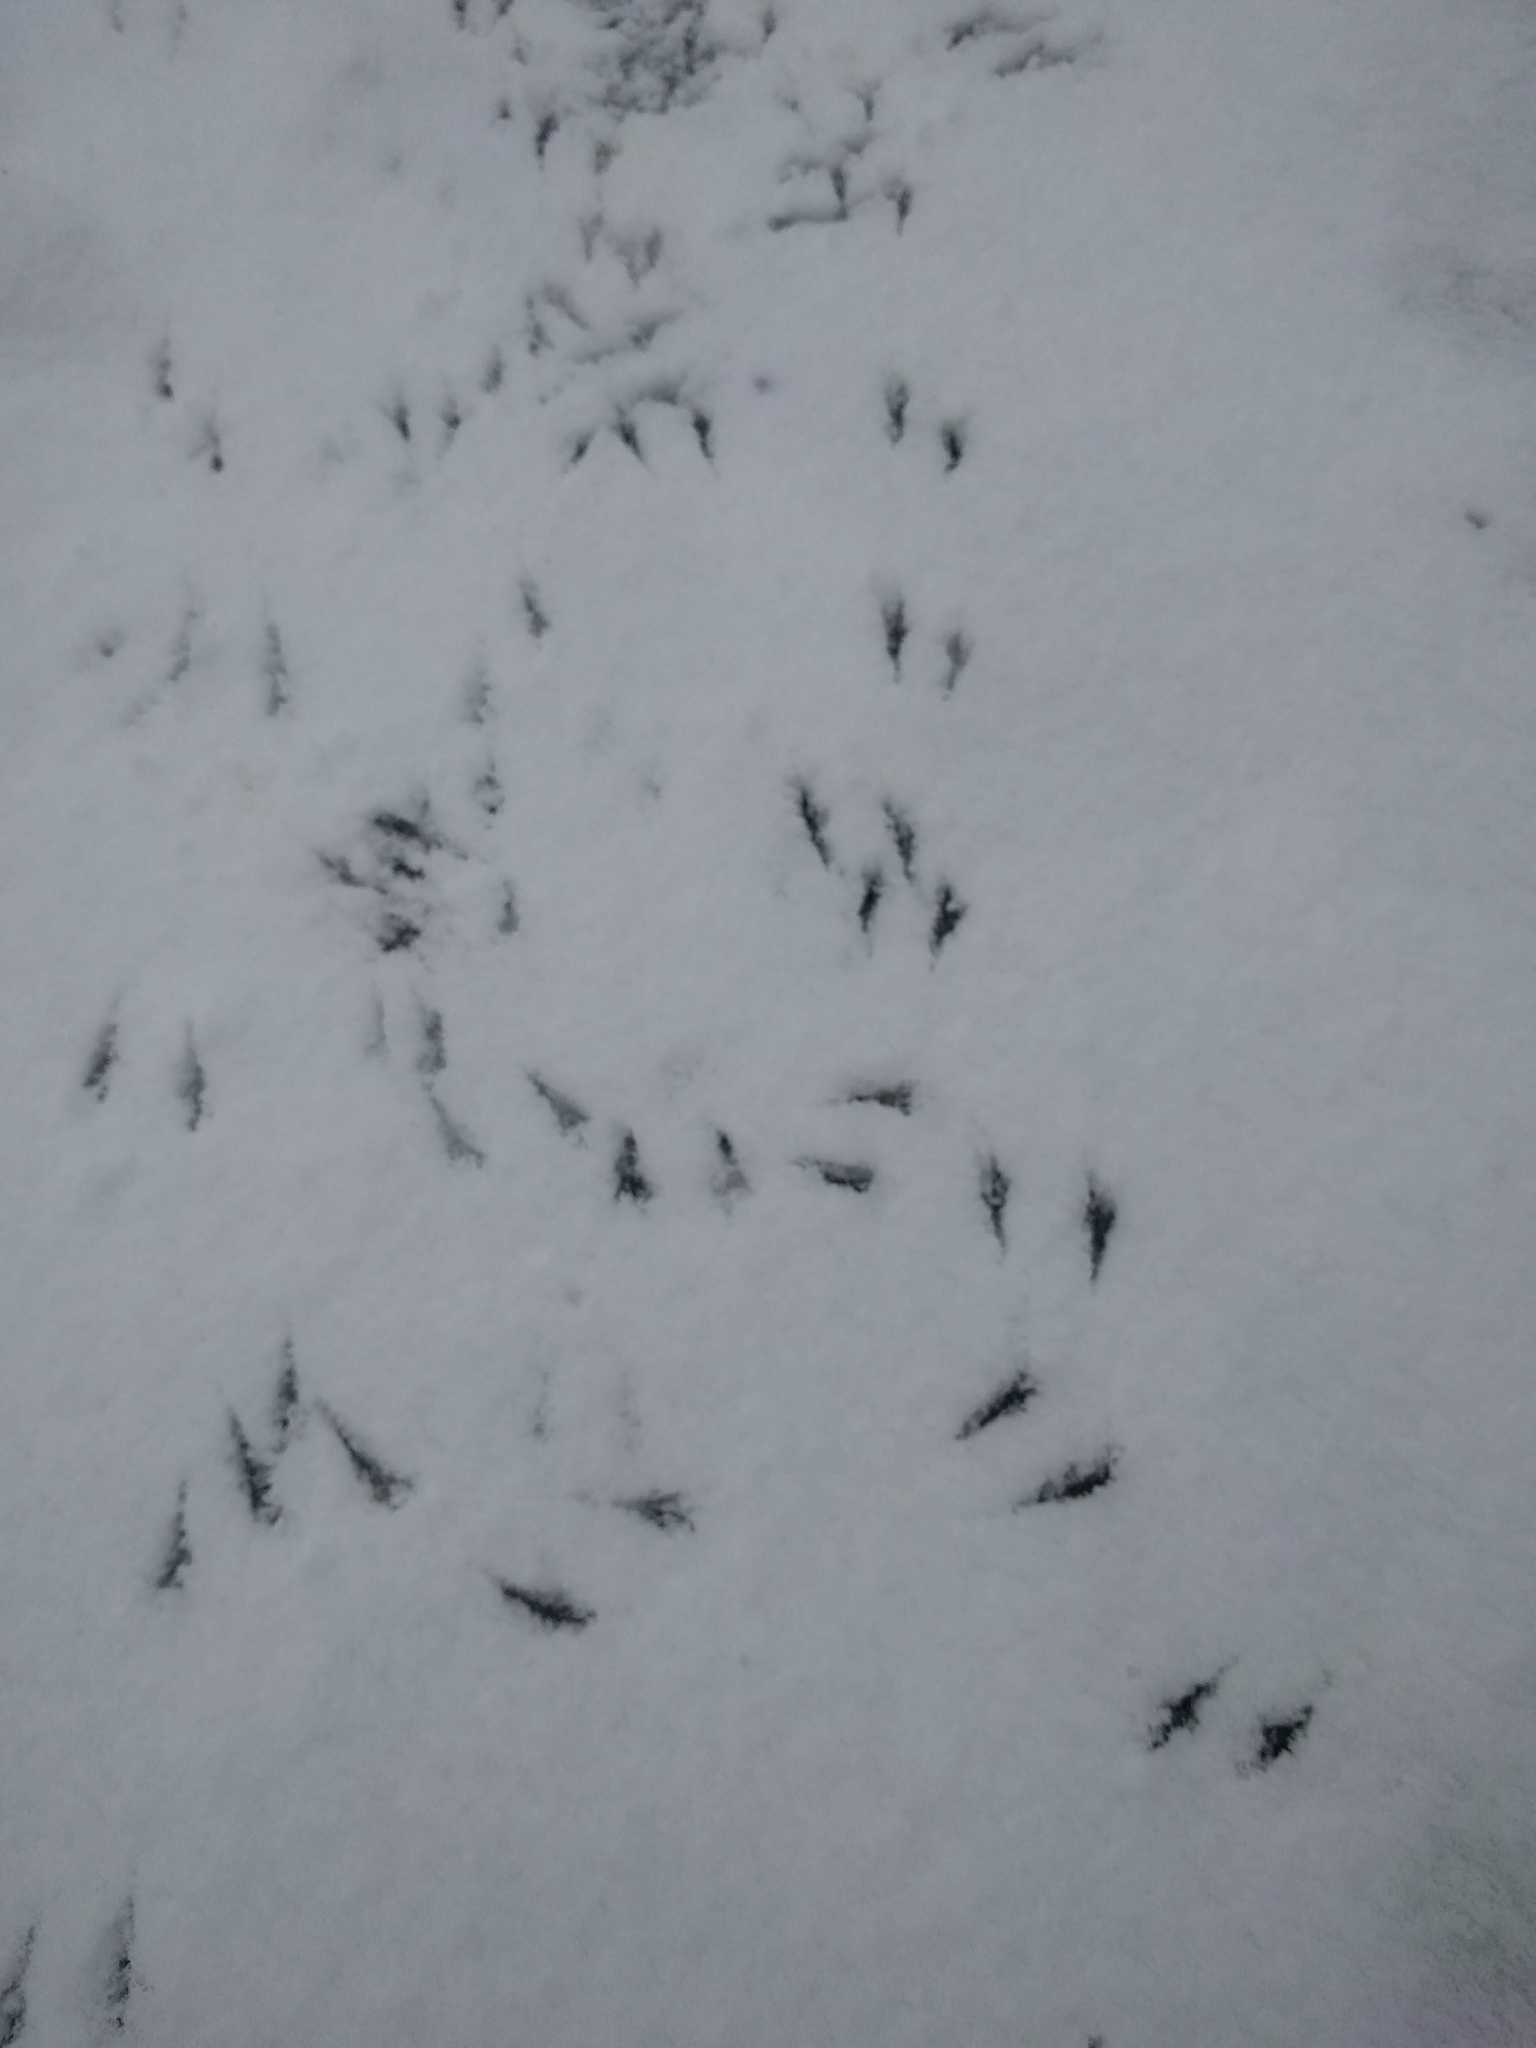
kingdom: Animalia
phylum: Chordata
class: Aves
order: Columbiformes
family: Columbidae
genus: Zenaida
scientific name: Zenaida macroura
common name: Mourning dove
